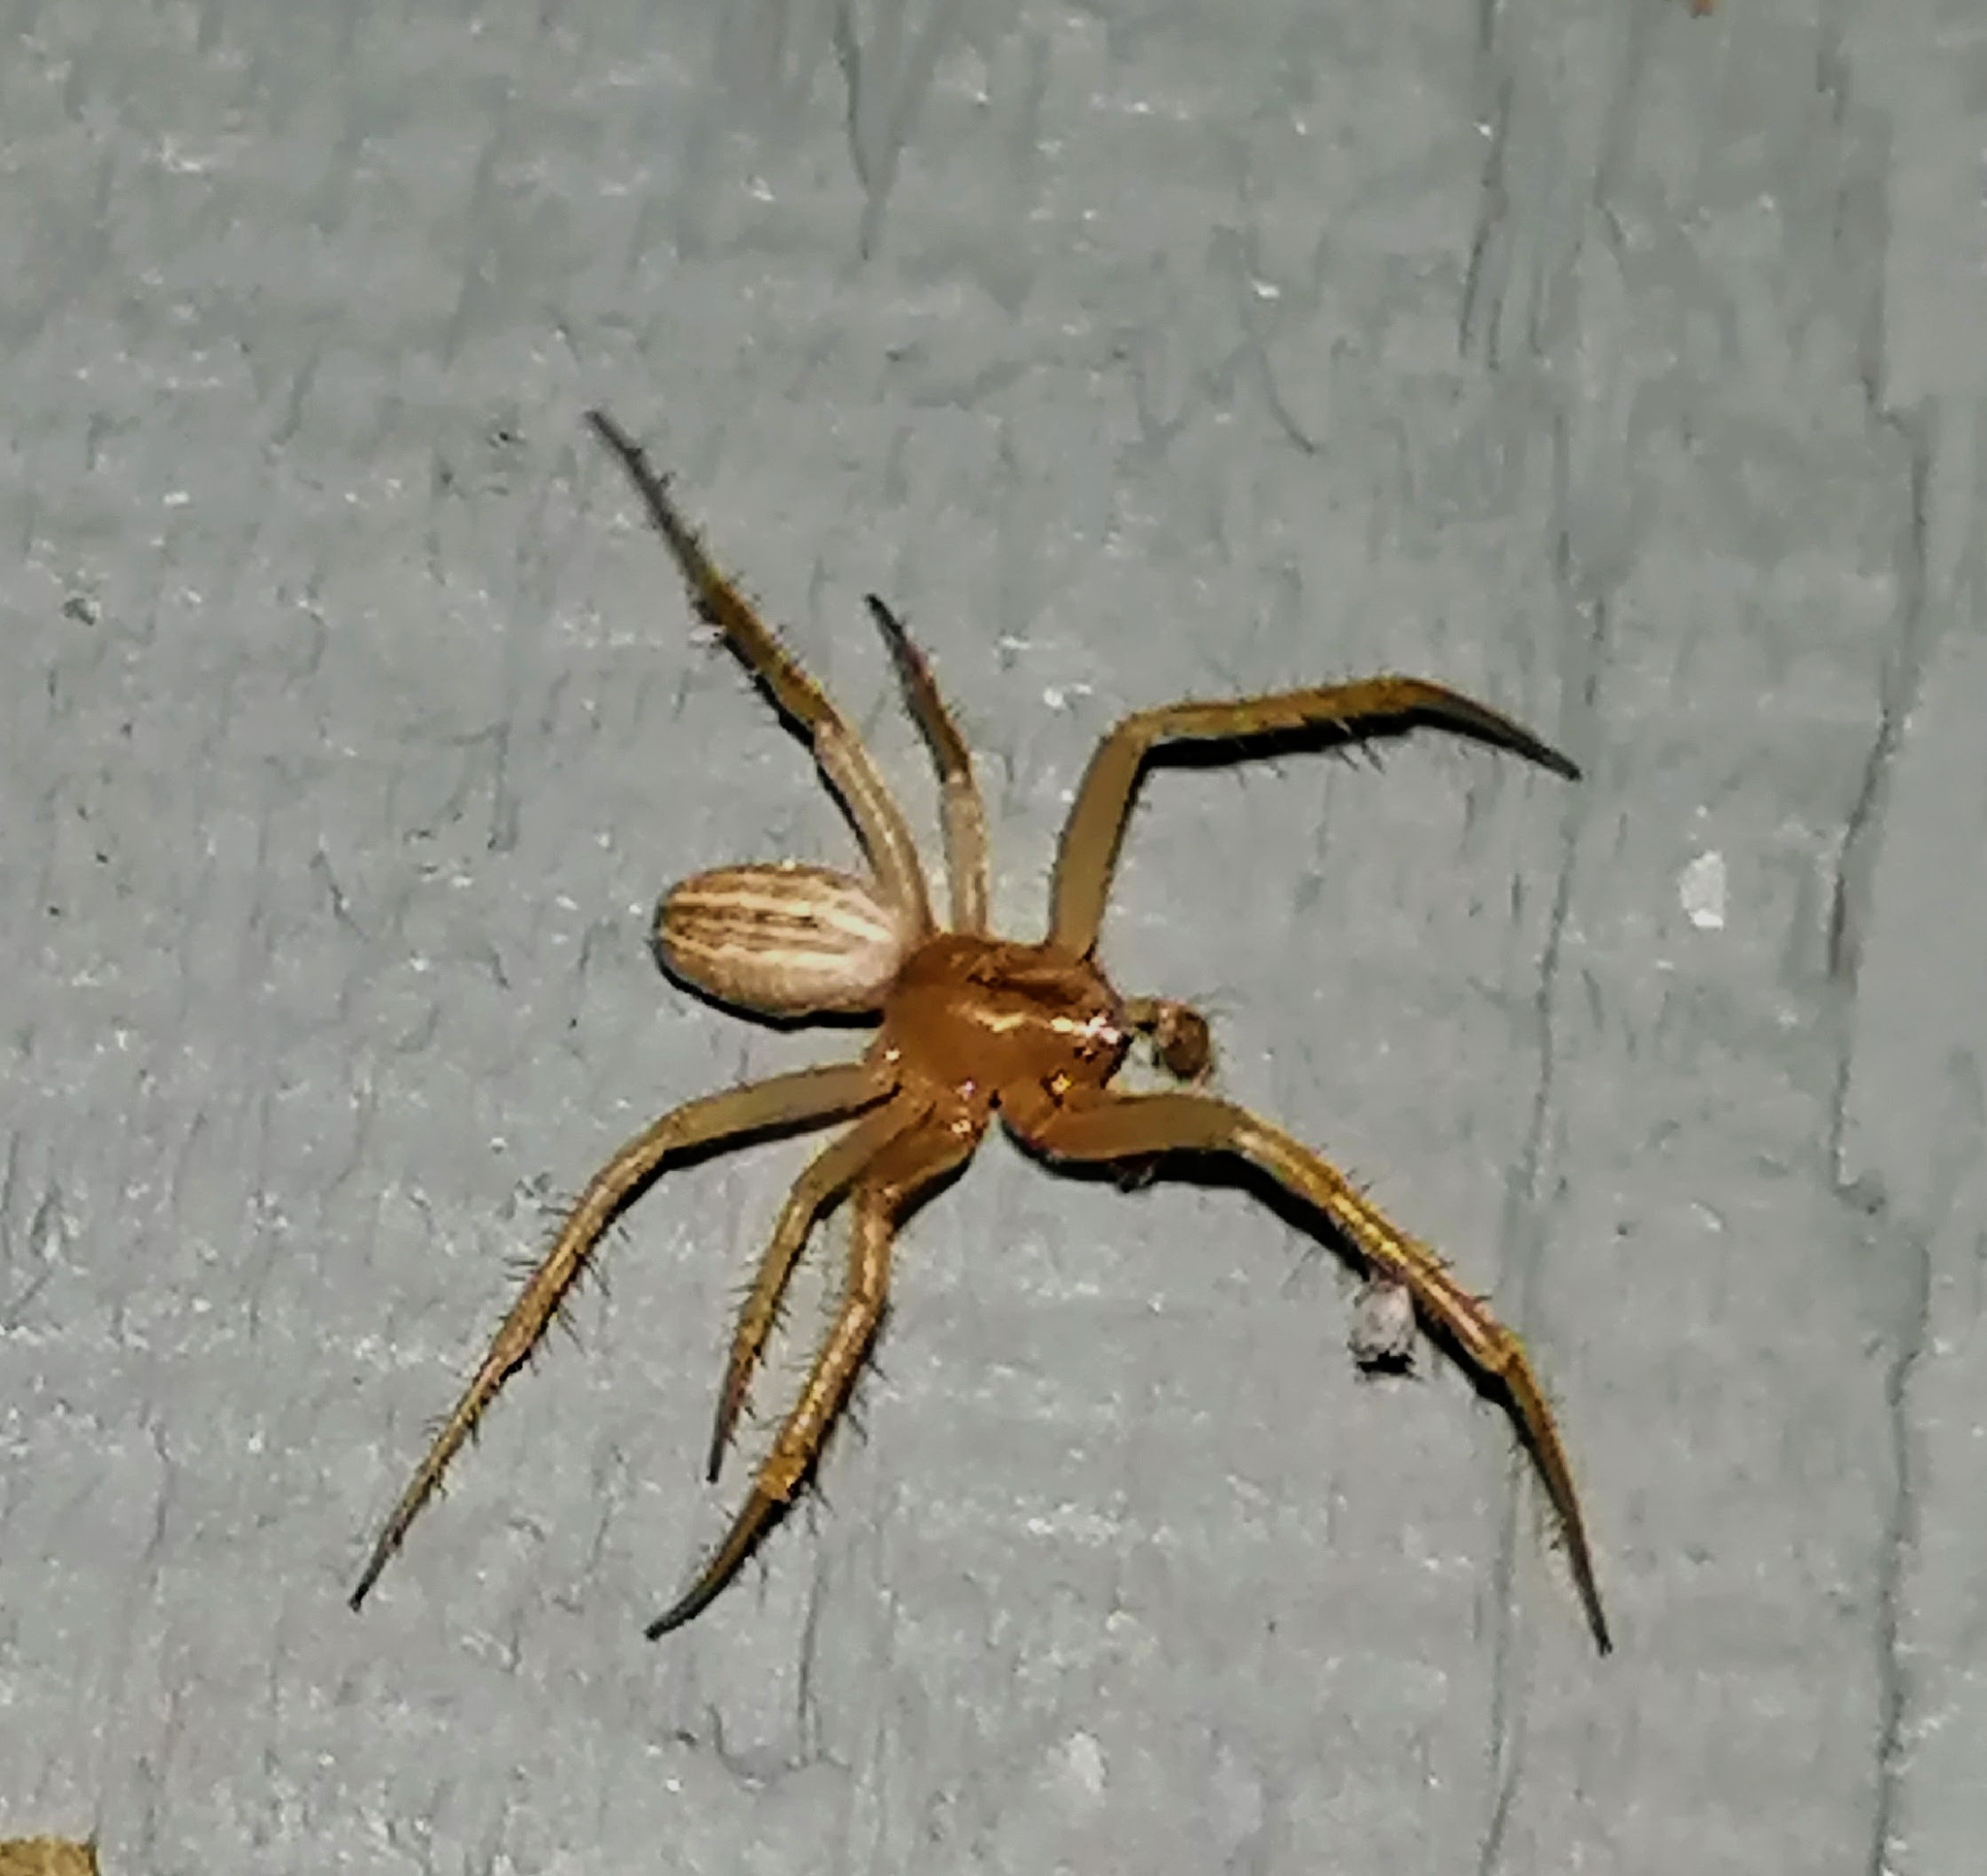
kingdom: Animalia
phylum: Arthropoda
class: Arachnida
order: Araneae
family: Araneidae
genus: Larinia
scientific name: Larinia borealis
